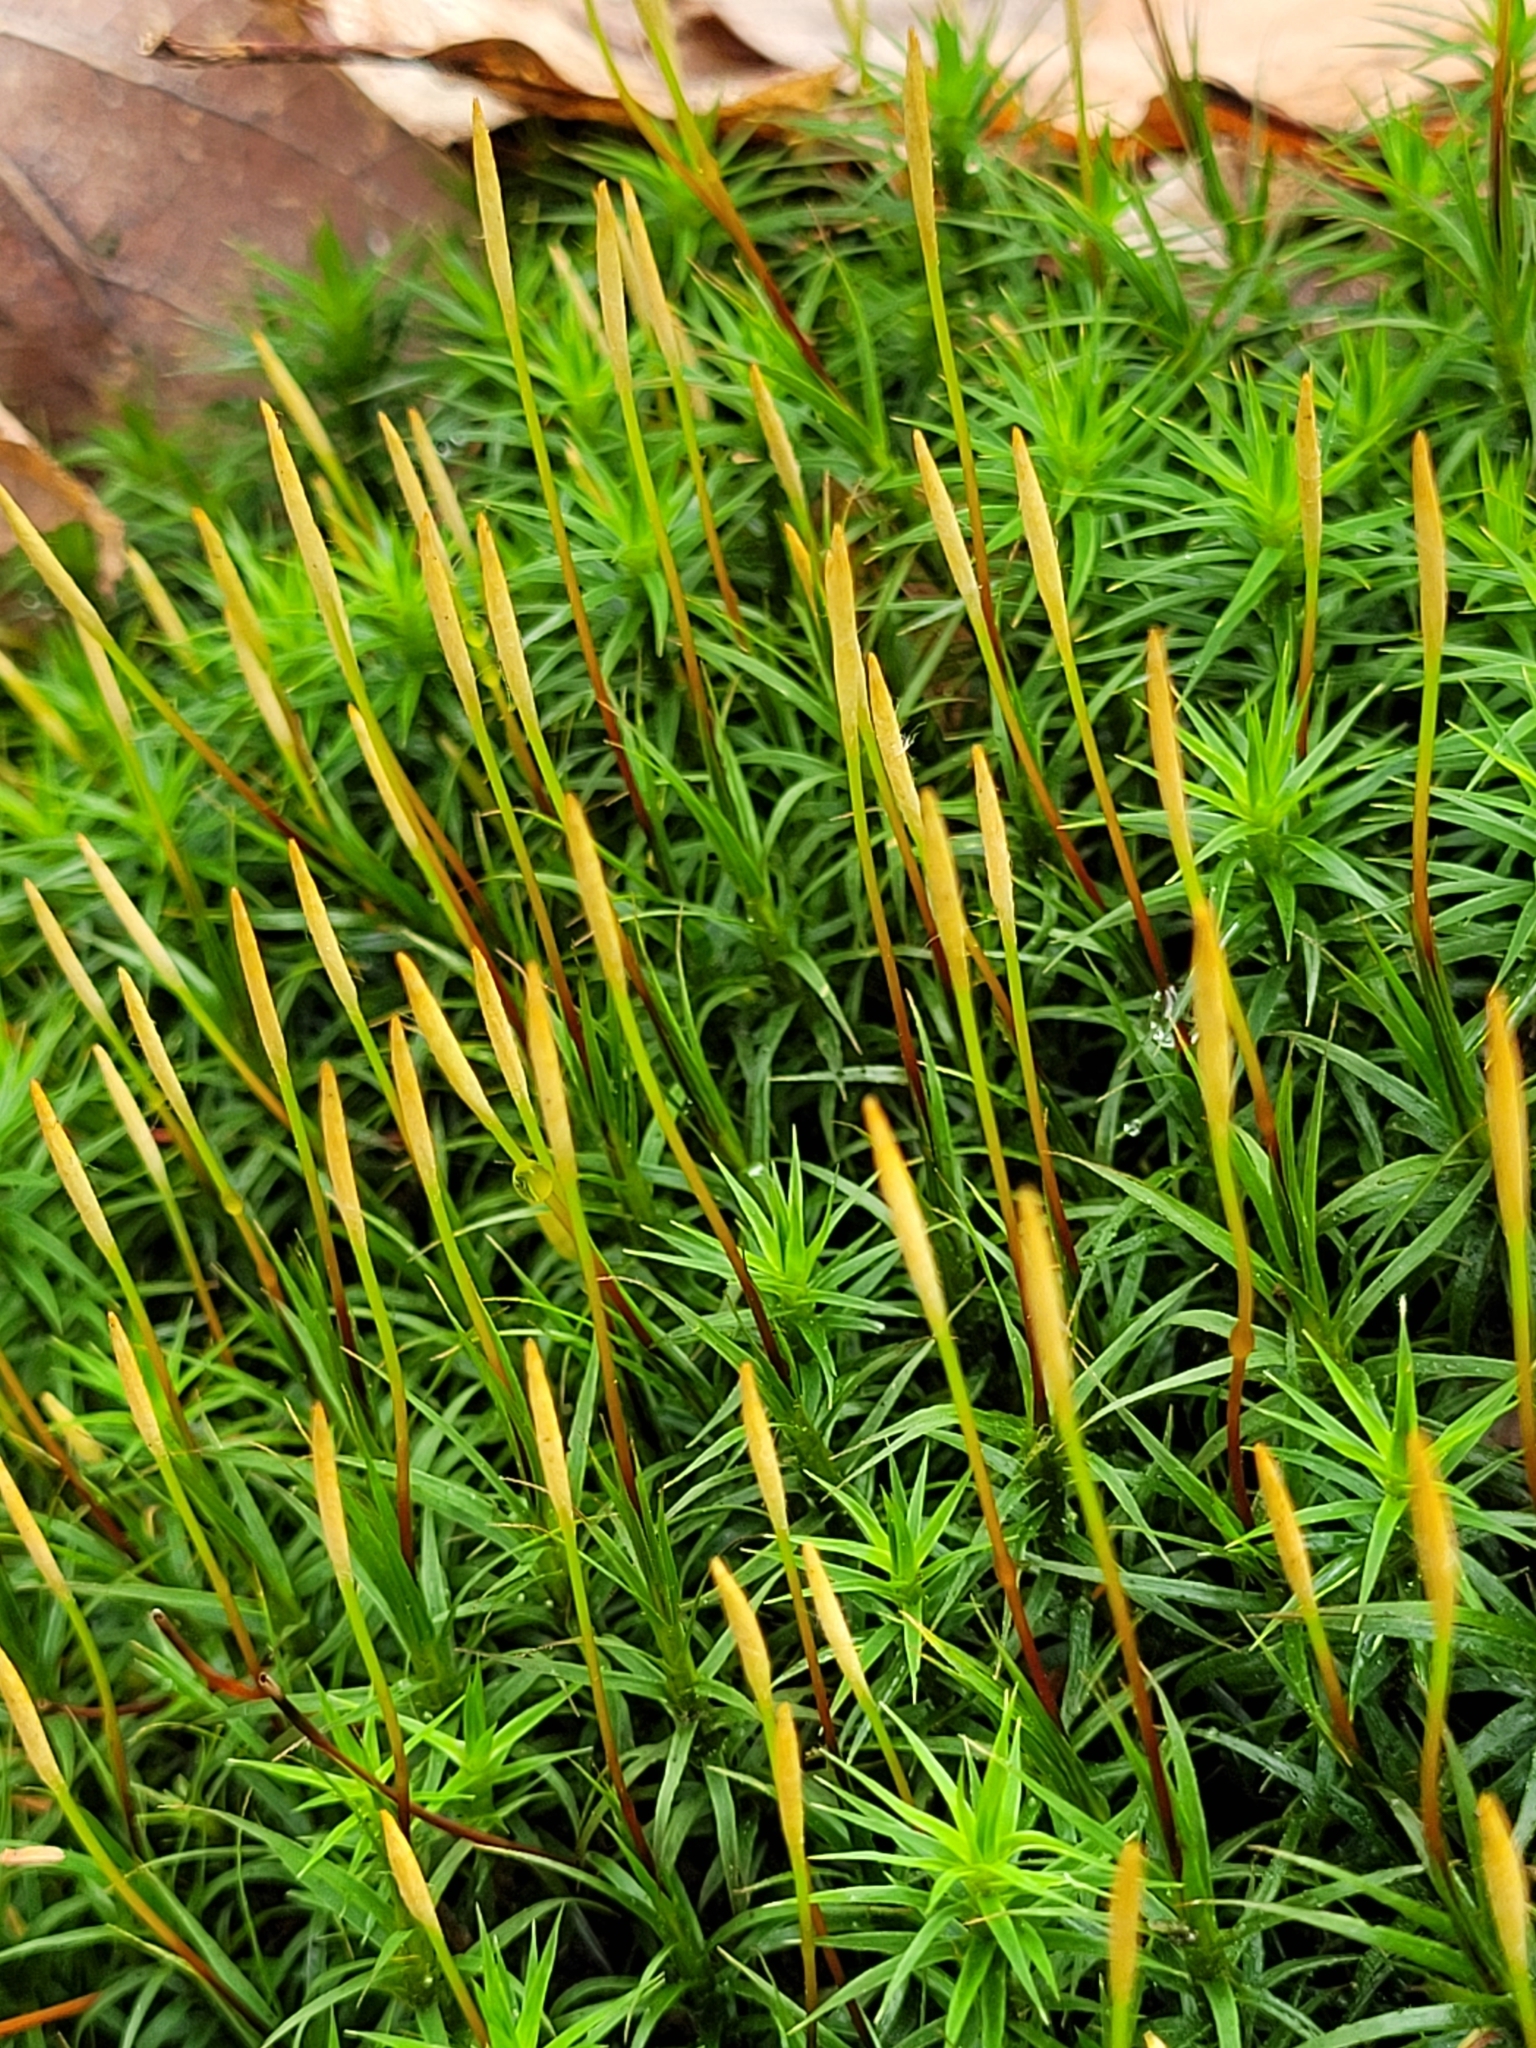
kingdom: Plantae
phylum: Bryophyta
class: Polytrichopsida
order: Polytrichales
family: Polytrichaceae
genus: Polytrichum
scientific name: Polytrichum formosum
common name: Bank haircap moss
